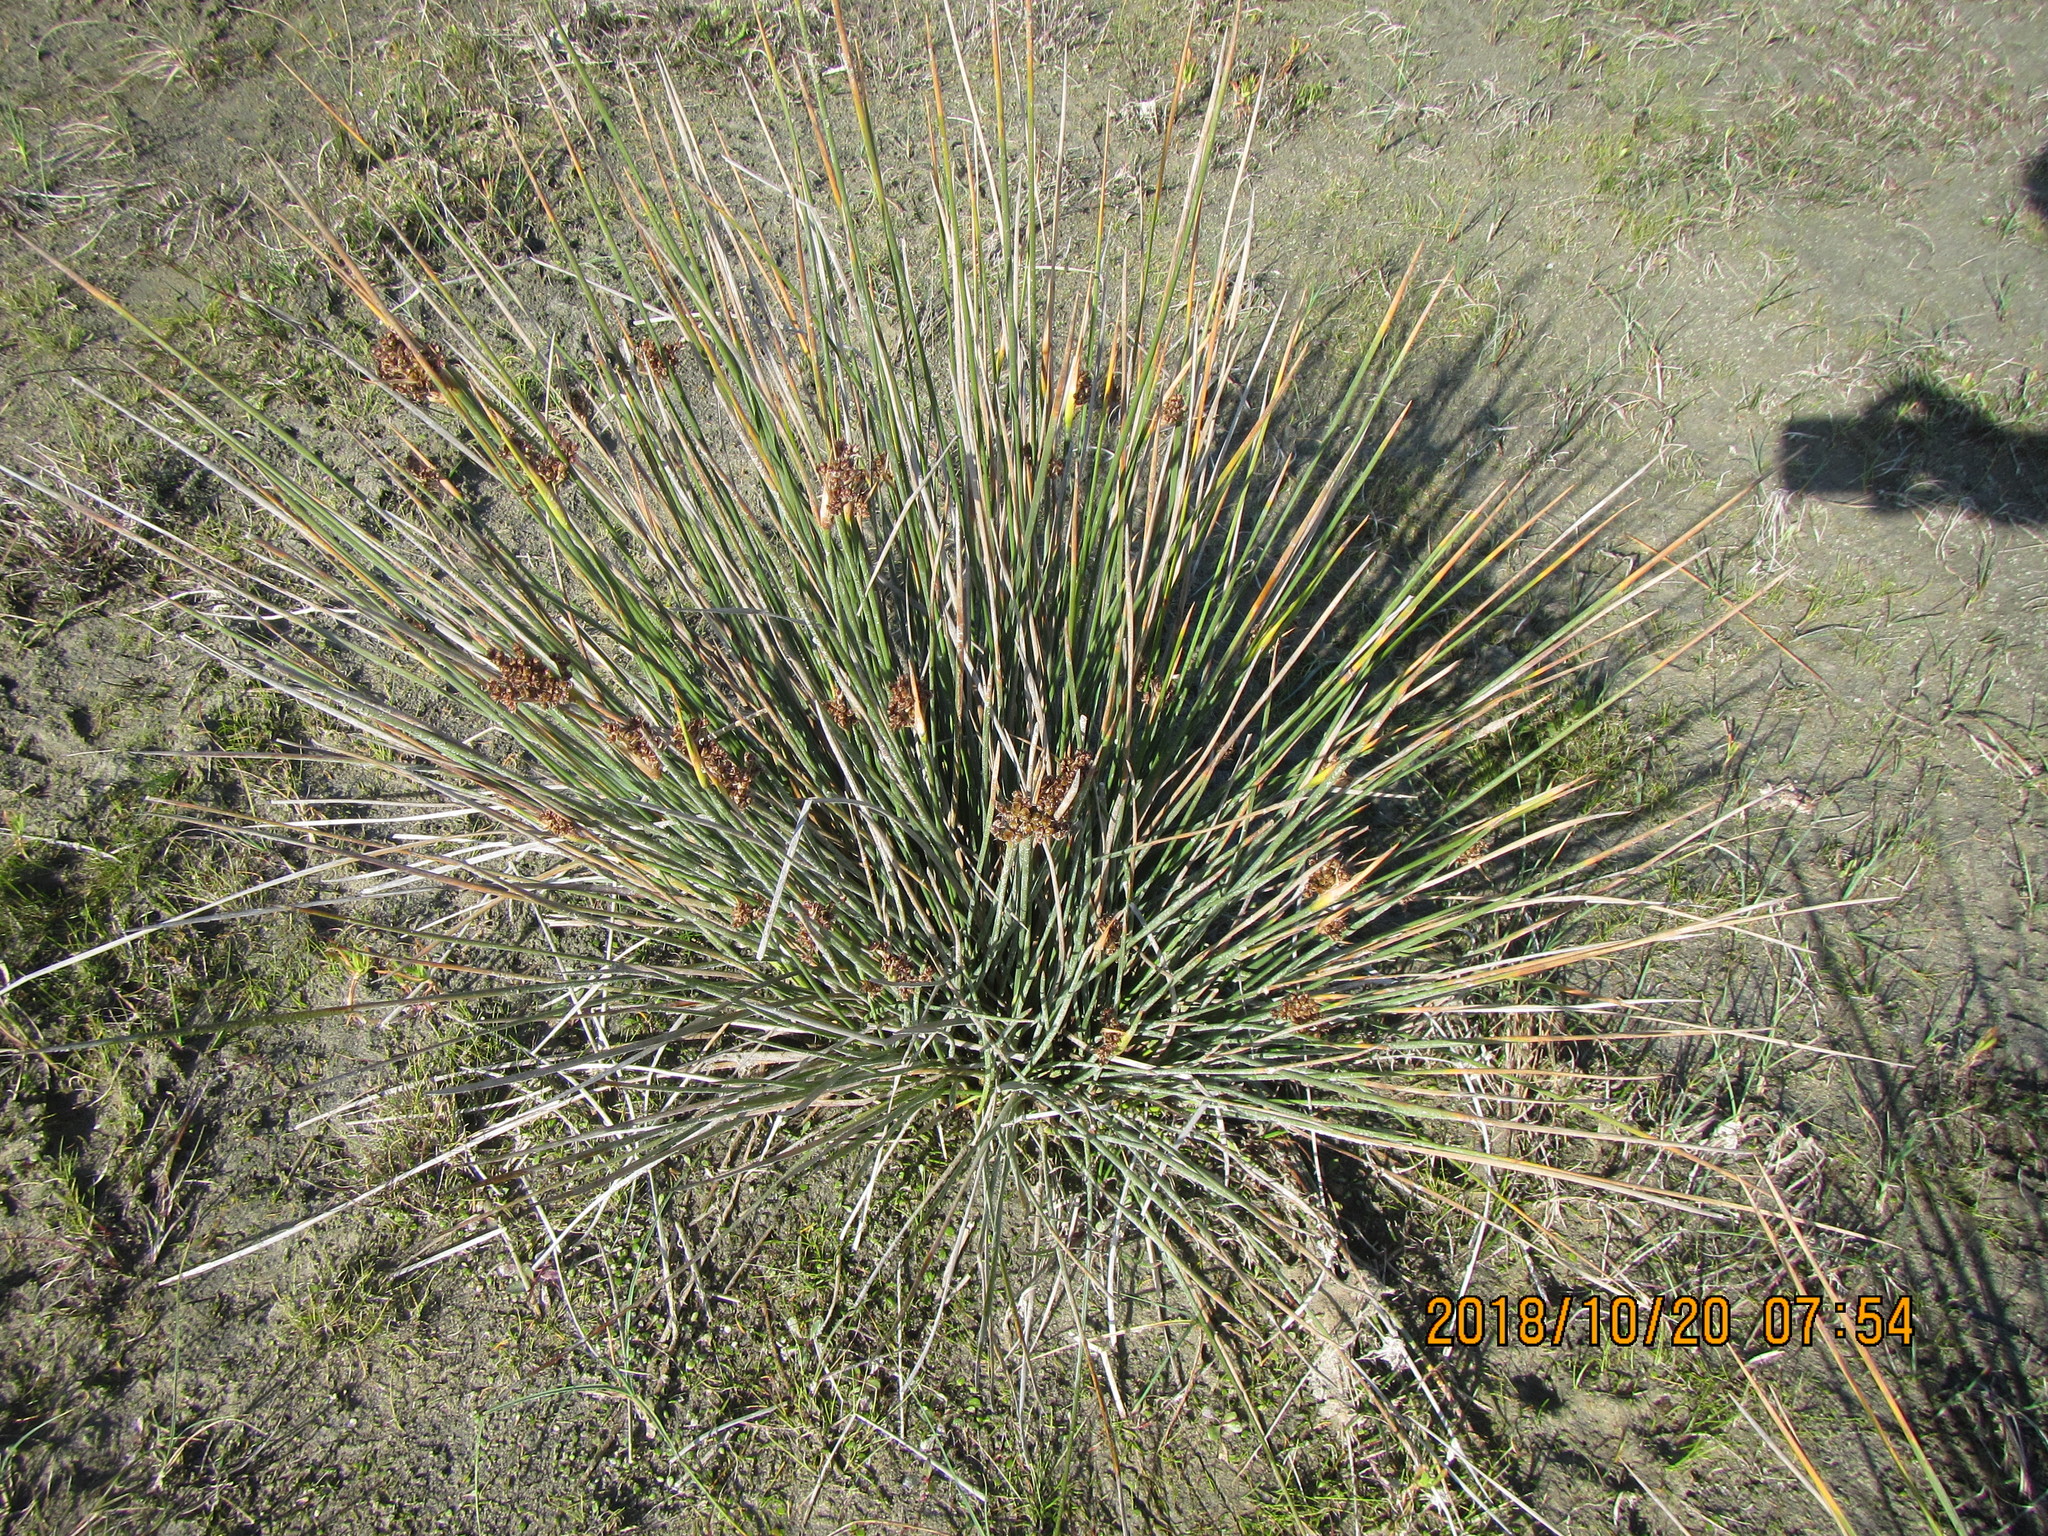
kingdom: Plantae
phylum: Tracheophyta
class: Liliopsida
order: Poales
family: Juncaceae
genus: Juncus
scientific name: Juncus acutus
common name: Sharp rush
